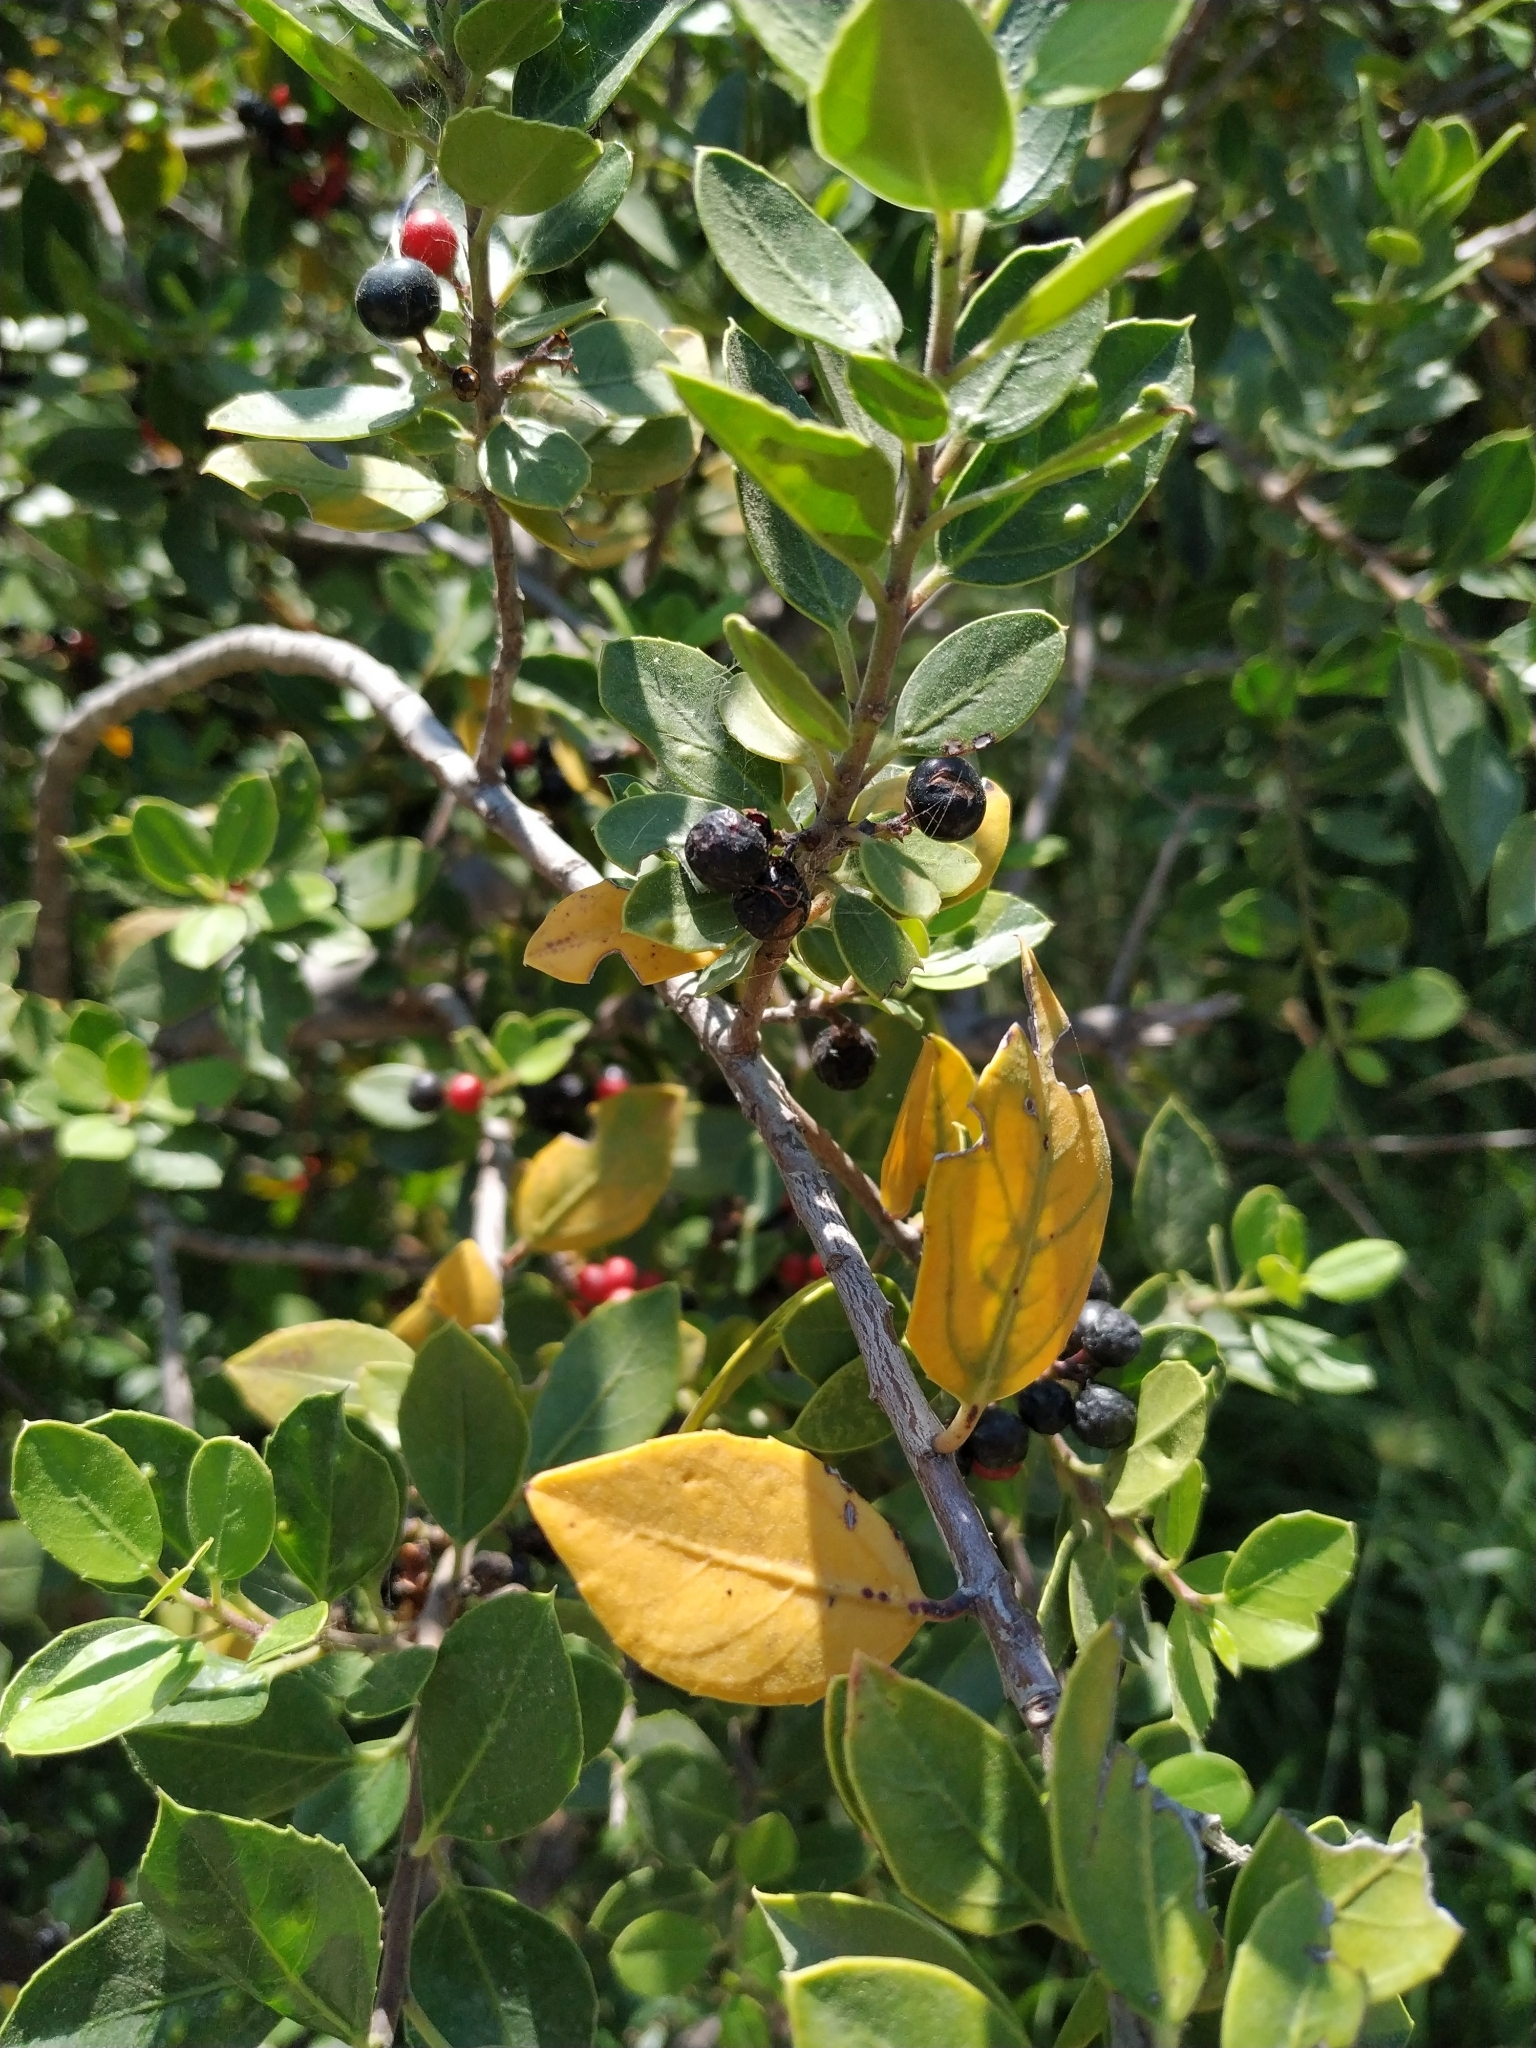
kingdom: Plantae
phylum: Tracheophyta
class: Magnoliopsida
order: Rosales
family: Rhamnaceae
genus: Rhamnus
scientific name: Rhamnus alaternus
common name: Mediterranean buckthorn
